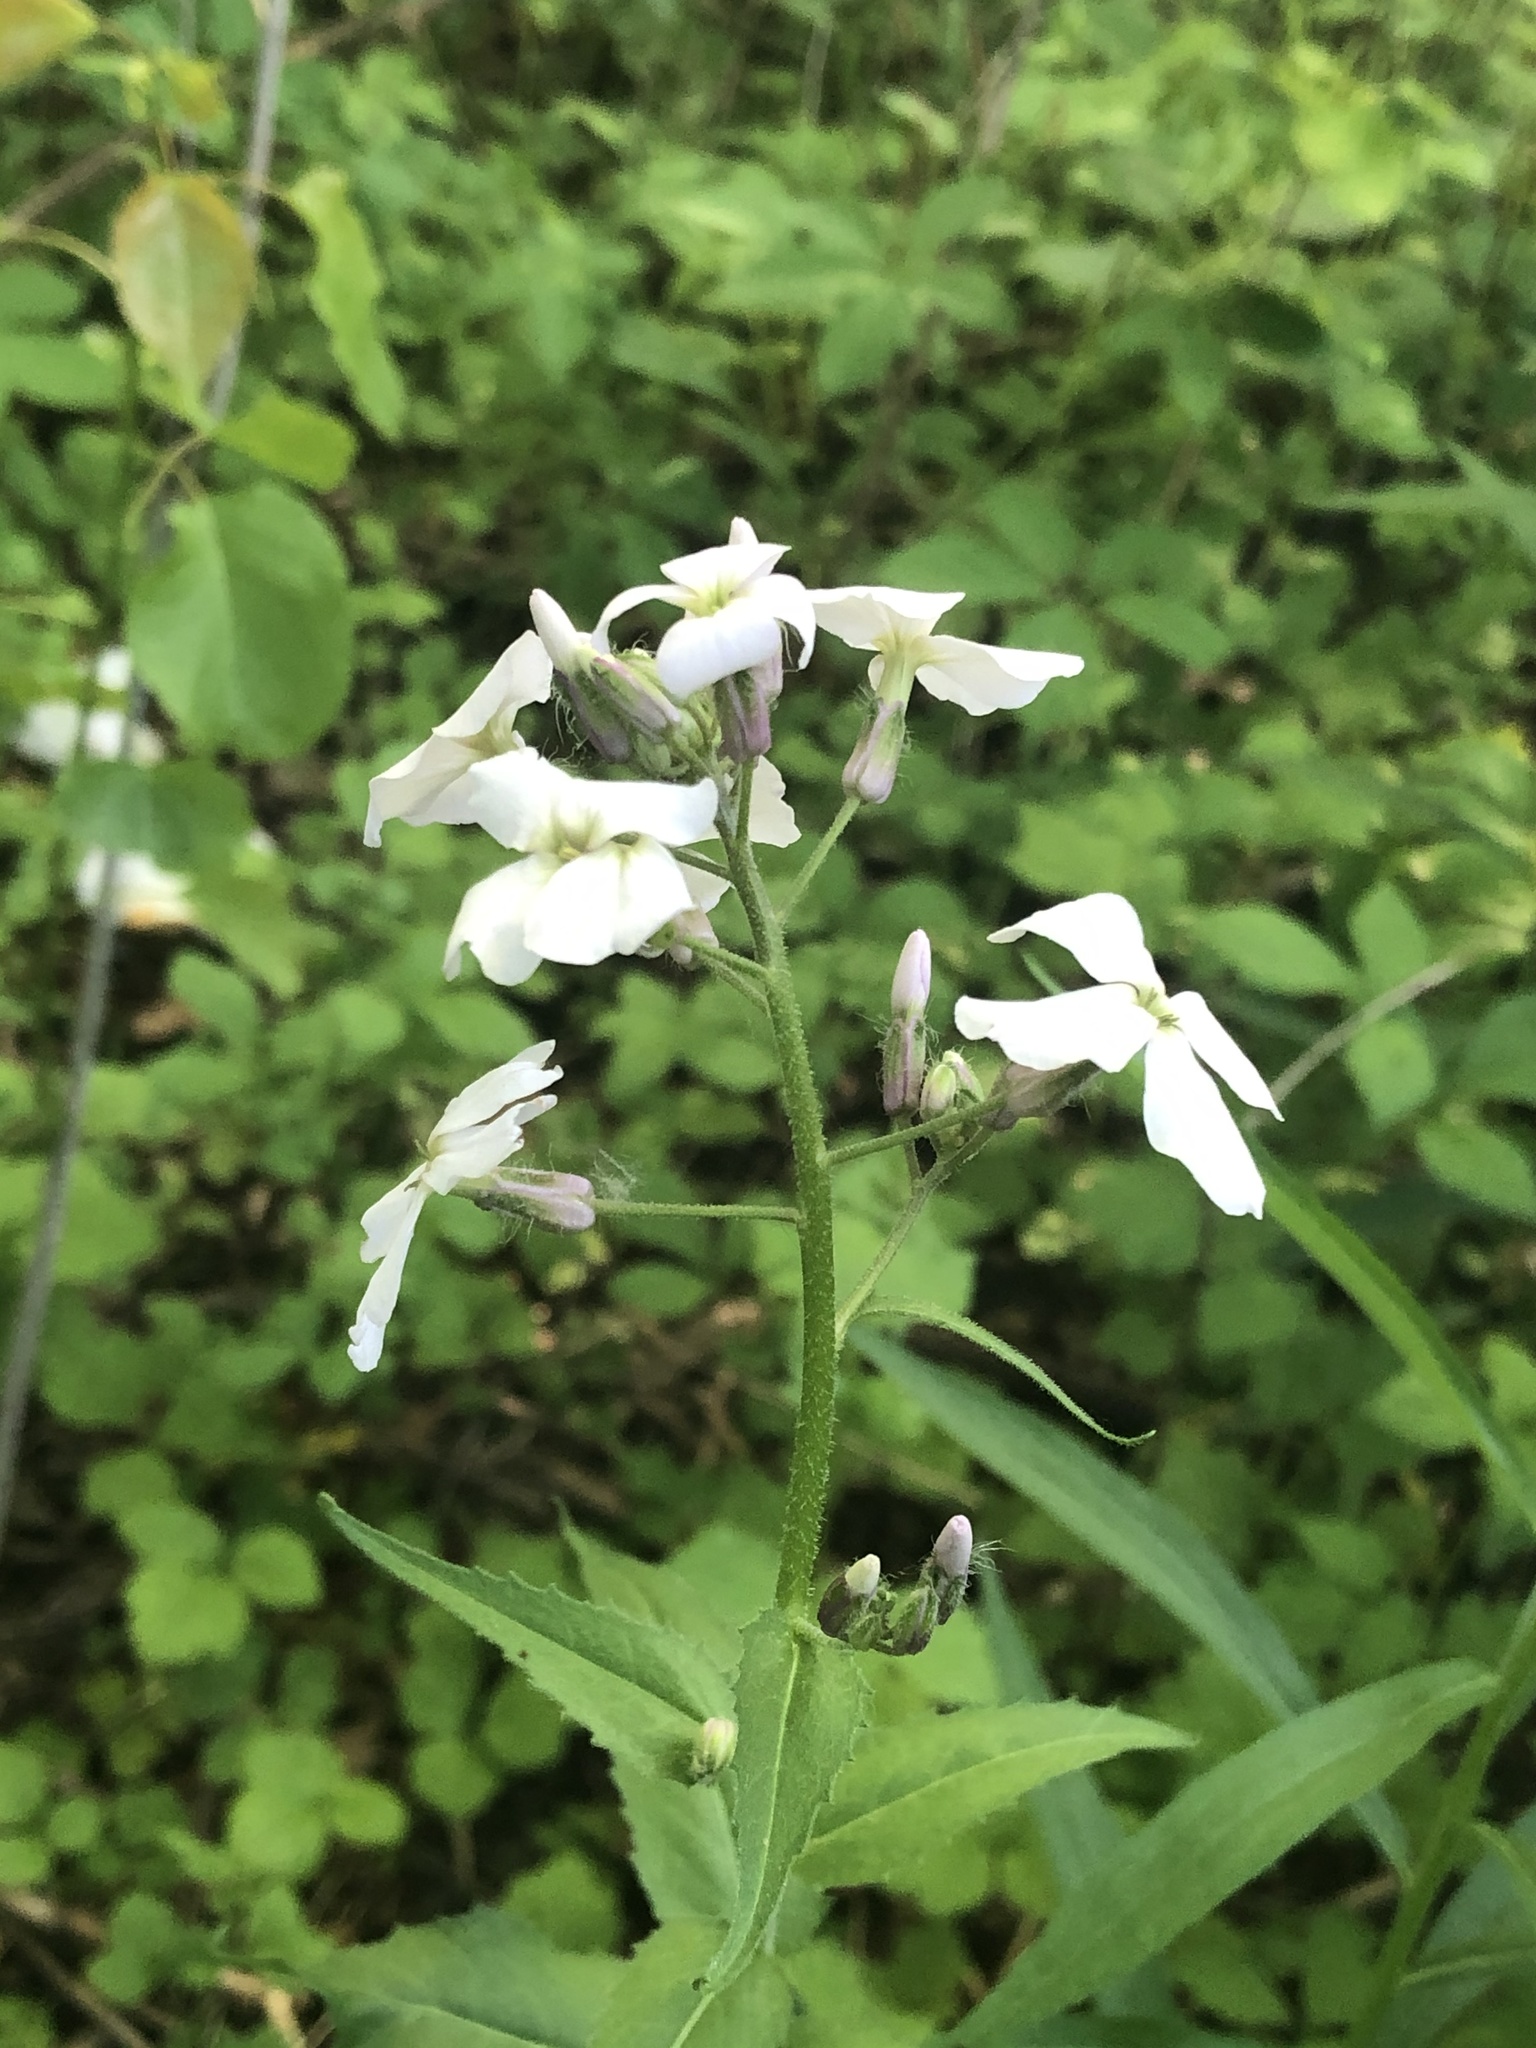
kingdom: Plantae
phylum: Tracheophyta
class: Magnoliopsida
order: Brassicales
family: Brassicaceae
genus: Hesperis
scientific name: Hesperis matronalis
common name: Dame's-violet
